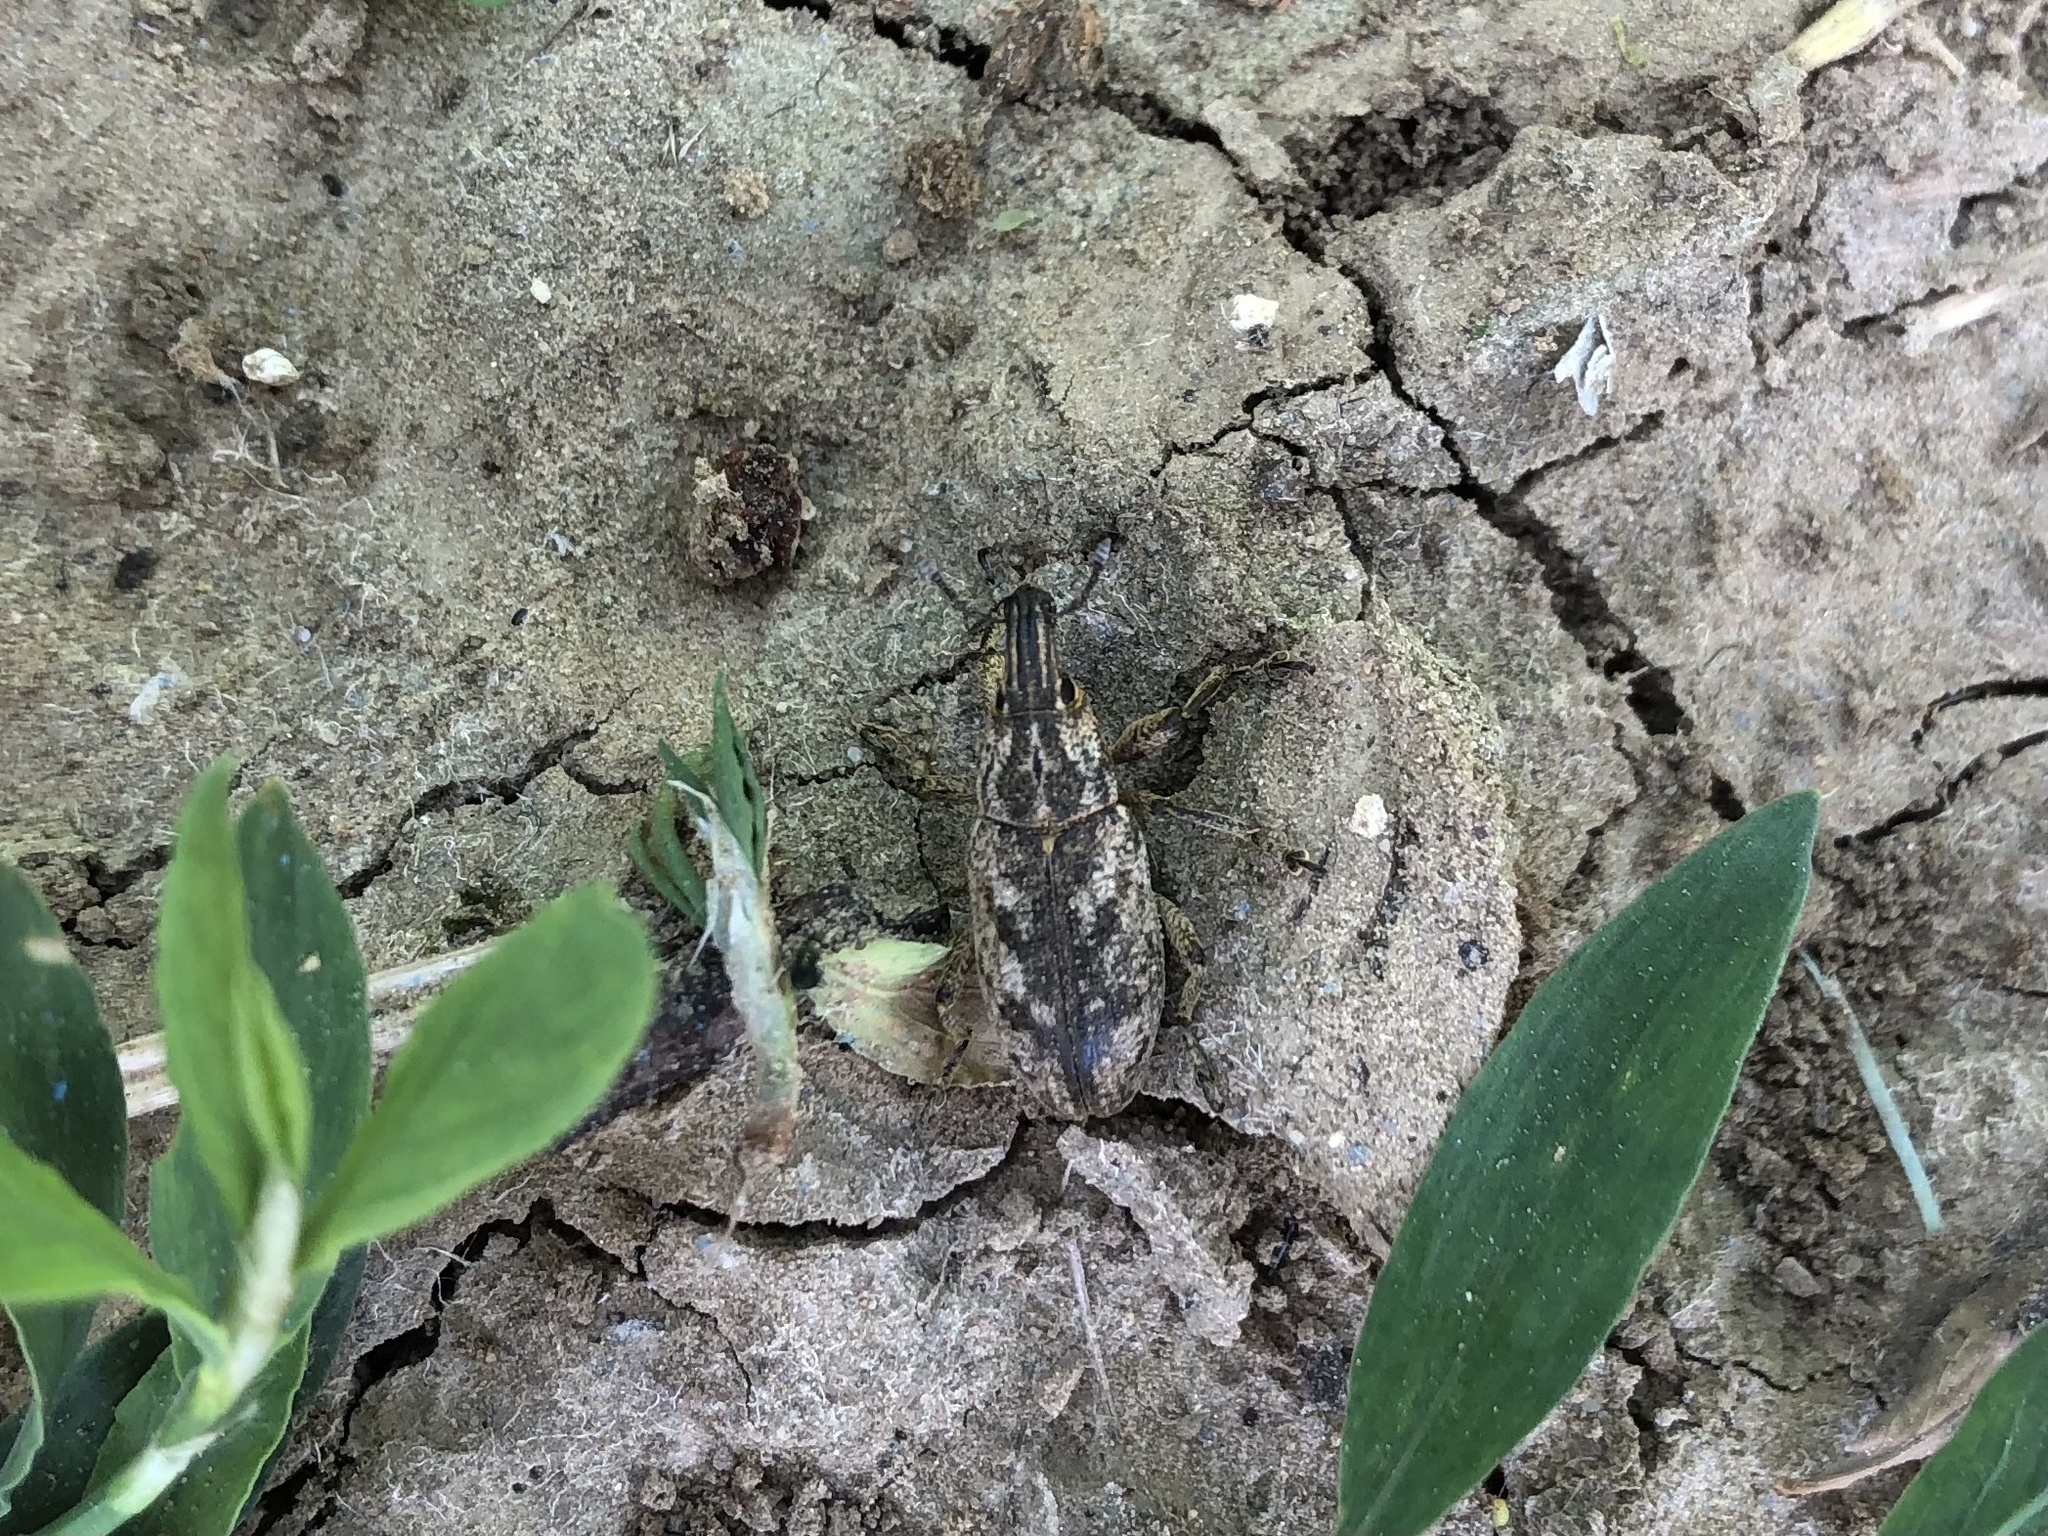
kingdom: Animalia
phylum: Arthropoda
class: Insecta
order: Coleoptera
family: Curculionidae
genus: Cleonis
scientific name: Cleonis pigra
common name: Large thistle weevil
